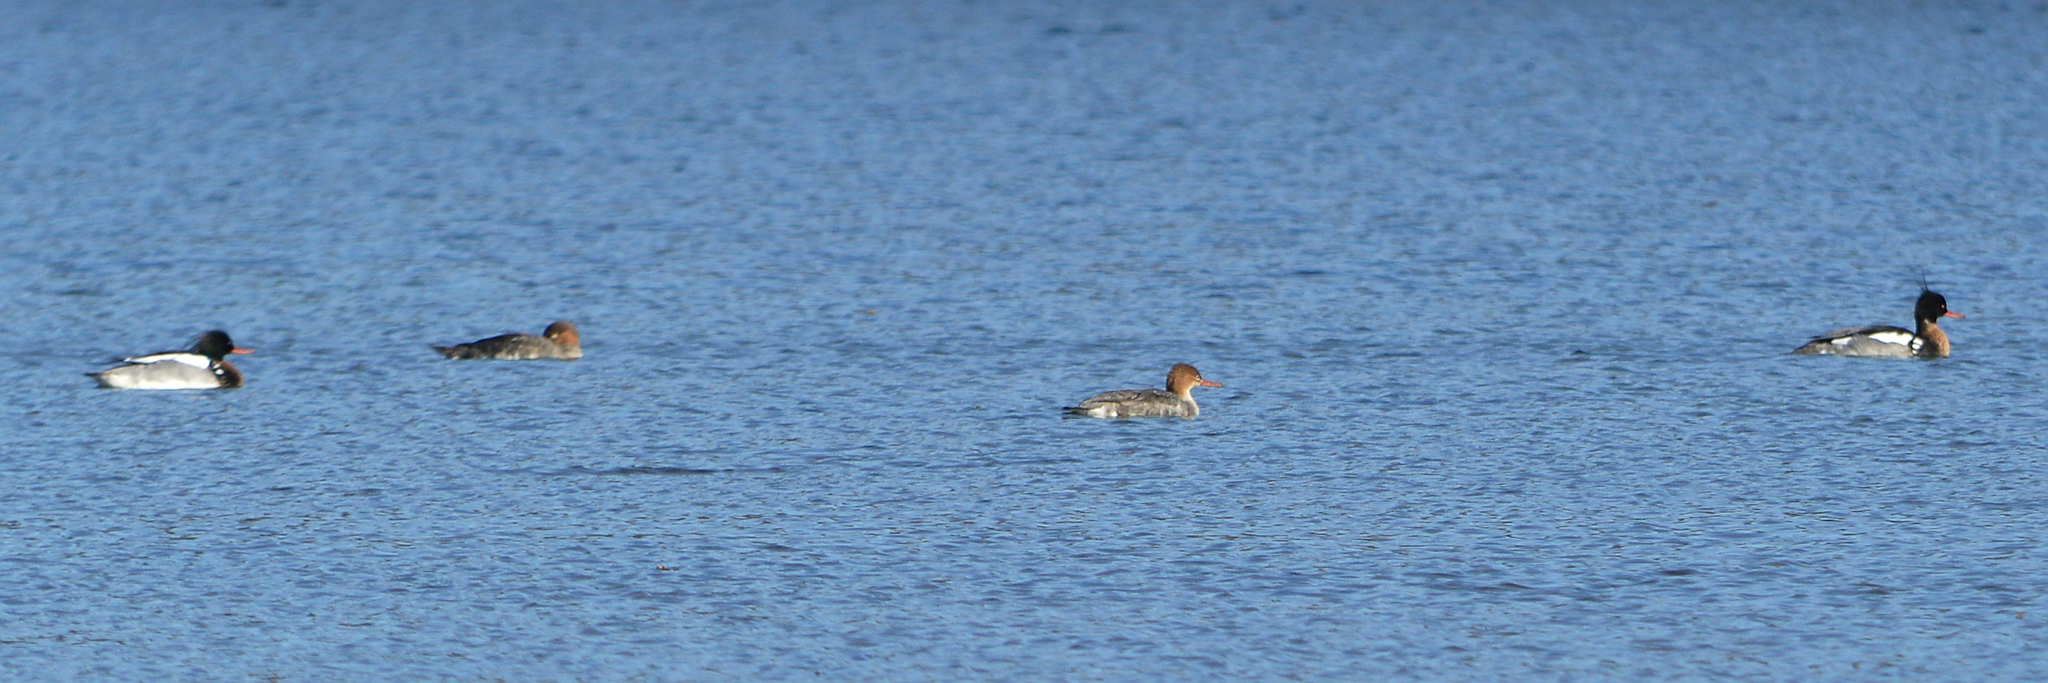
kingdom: Animalia
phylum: Chordata
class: Aves
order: Anseriformes
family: Anatidae
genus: Mergus
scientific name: Mergus serrator
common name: Red-breasted merganser
